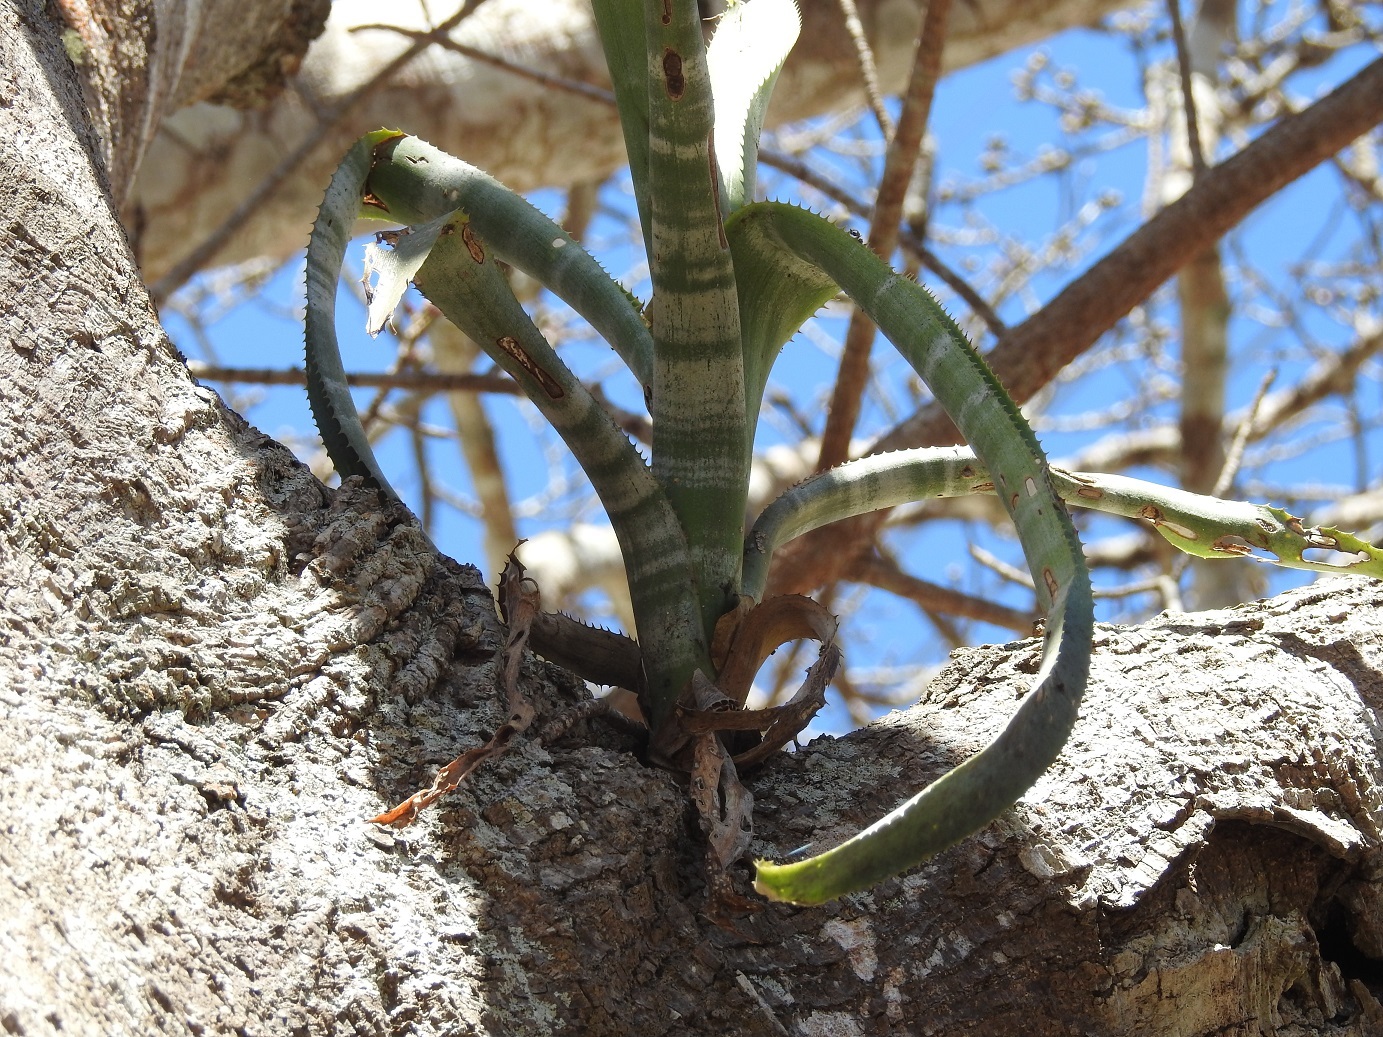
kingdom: Plantae
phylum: Tracheophyta
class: Liliopsida
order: Poales
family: Bromeliaceae
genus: Billbergia
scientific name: Billbergia pallidiflora
